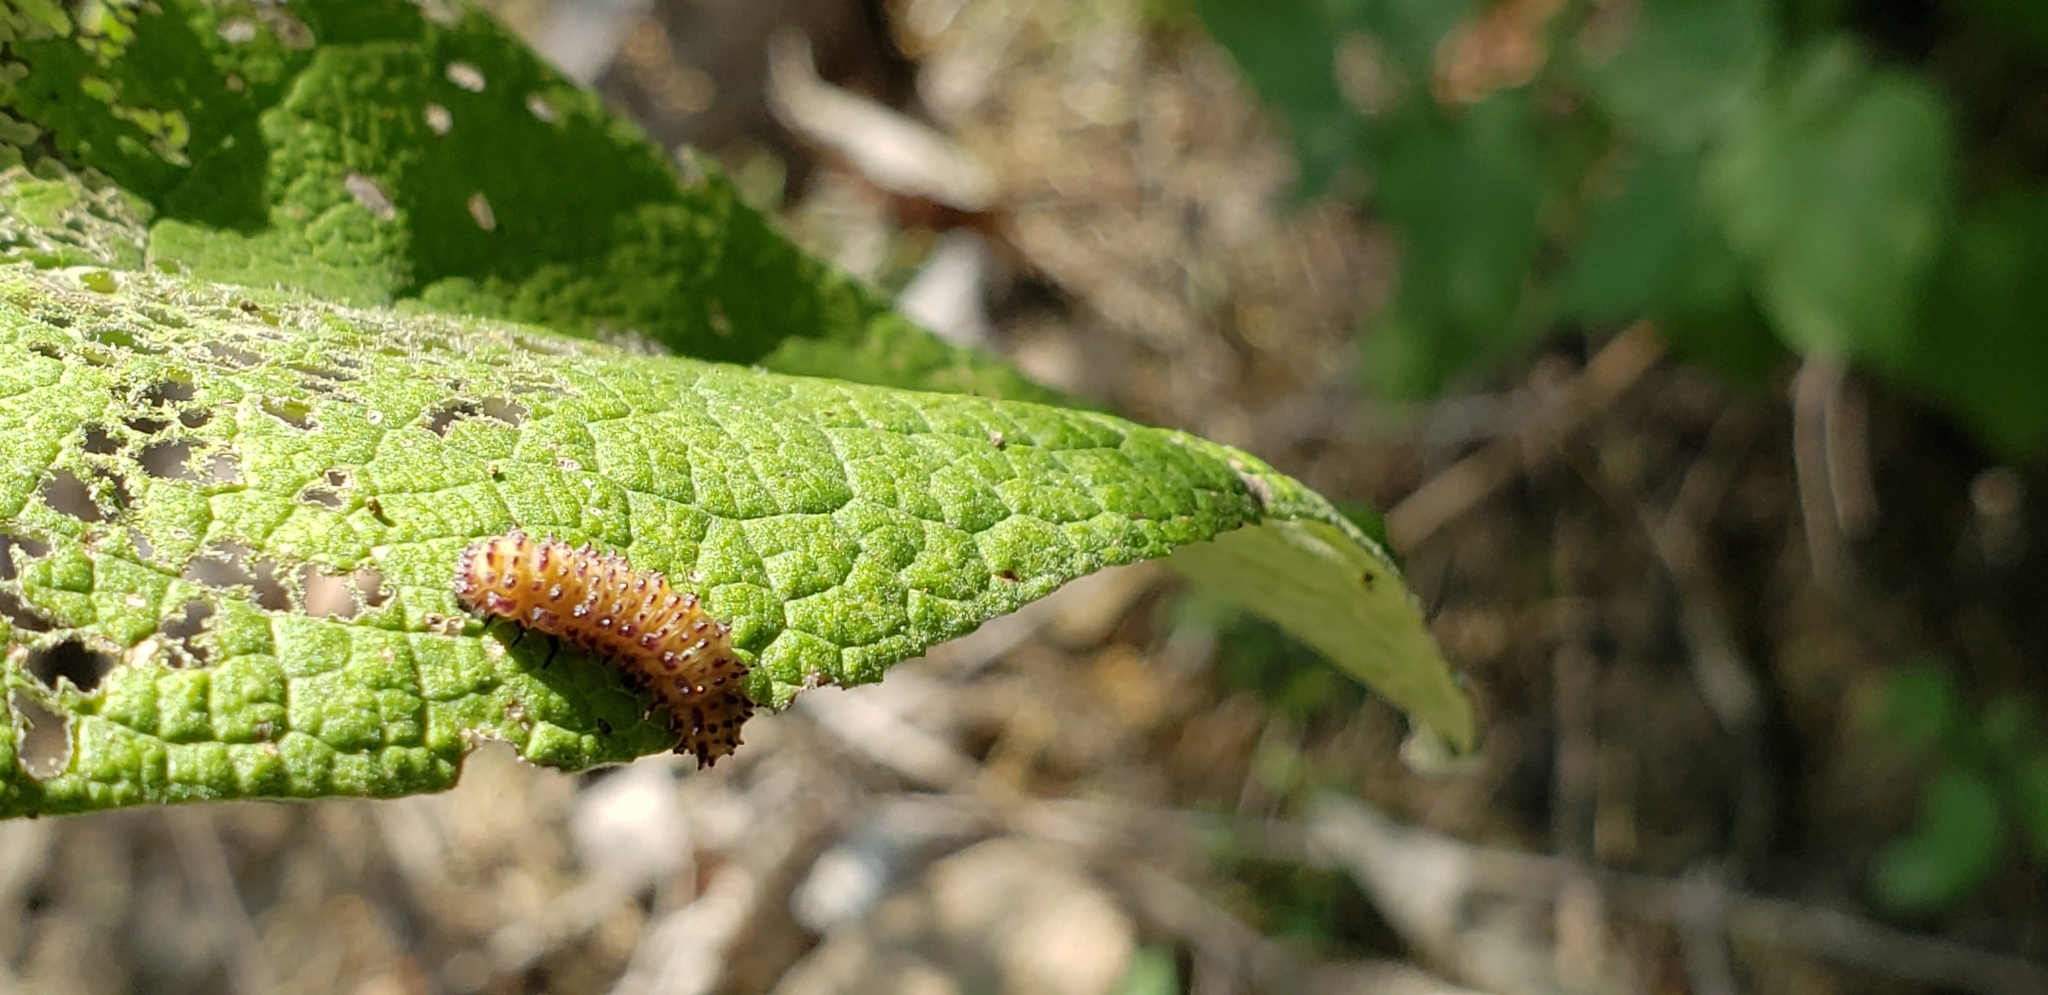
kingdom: Animalia
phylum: Arthropoda
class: Insecta
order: Coleoptera
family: Chrysomelidae
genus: Asphaera
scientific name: Asphaera abdominalis
